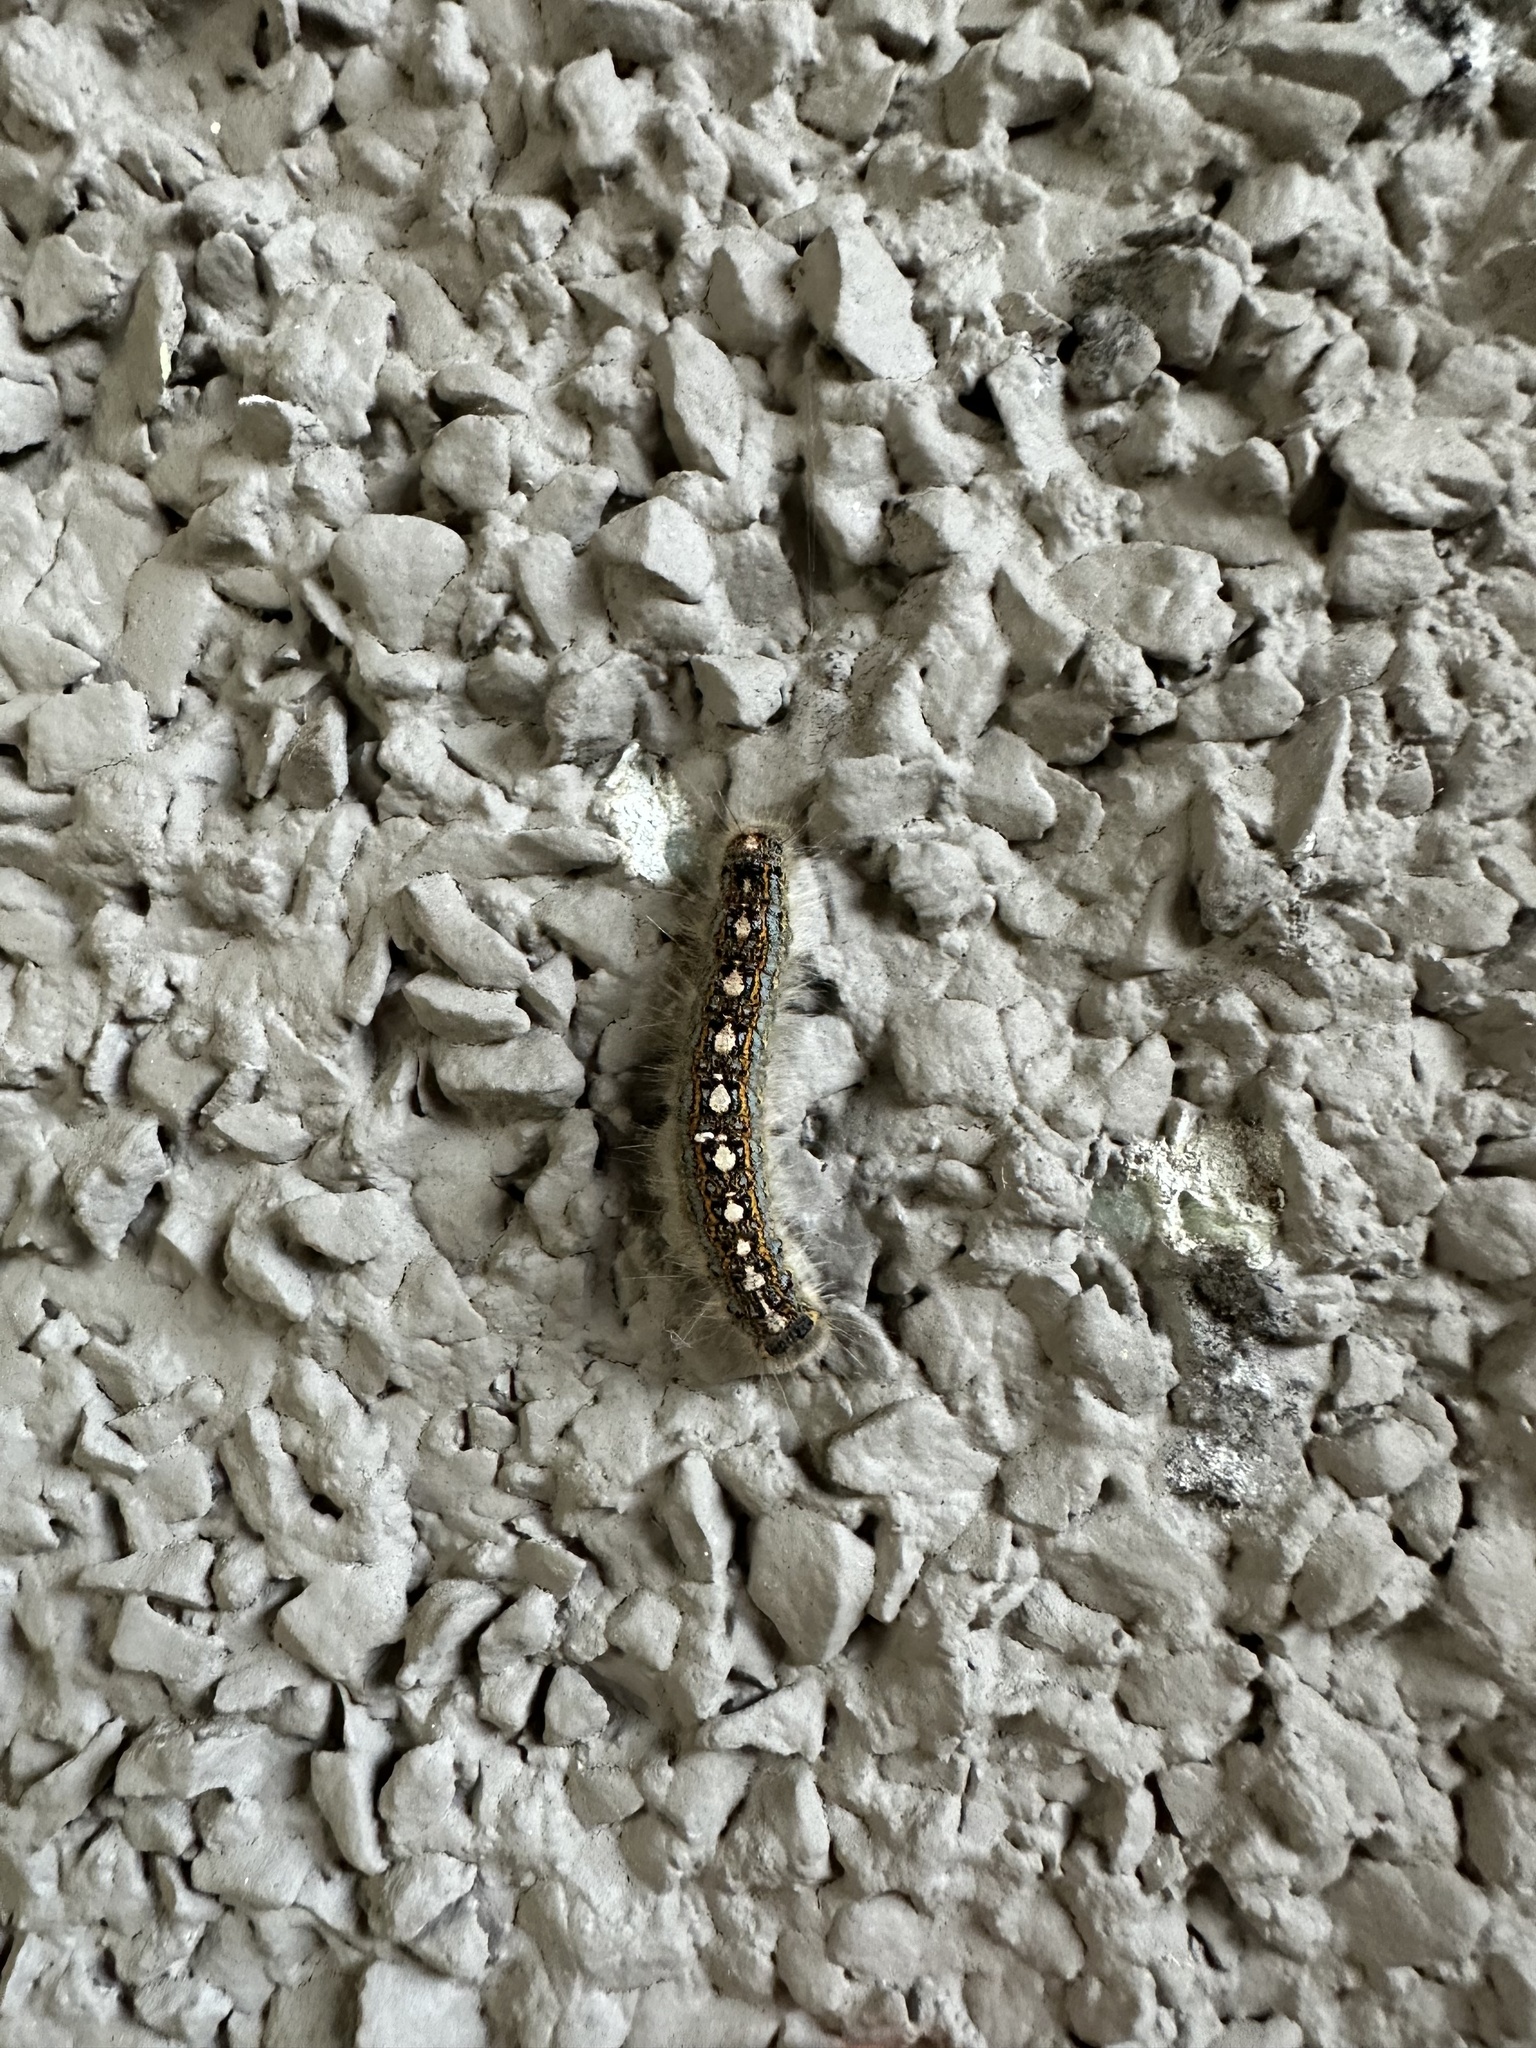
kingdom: Animalia
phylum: Arthropoda
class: Insecta
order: Lepidoptera
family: Lasiocampidae
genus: Malacosoma
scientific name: Malacosoma disstria
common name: Forest tent caterpillar
